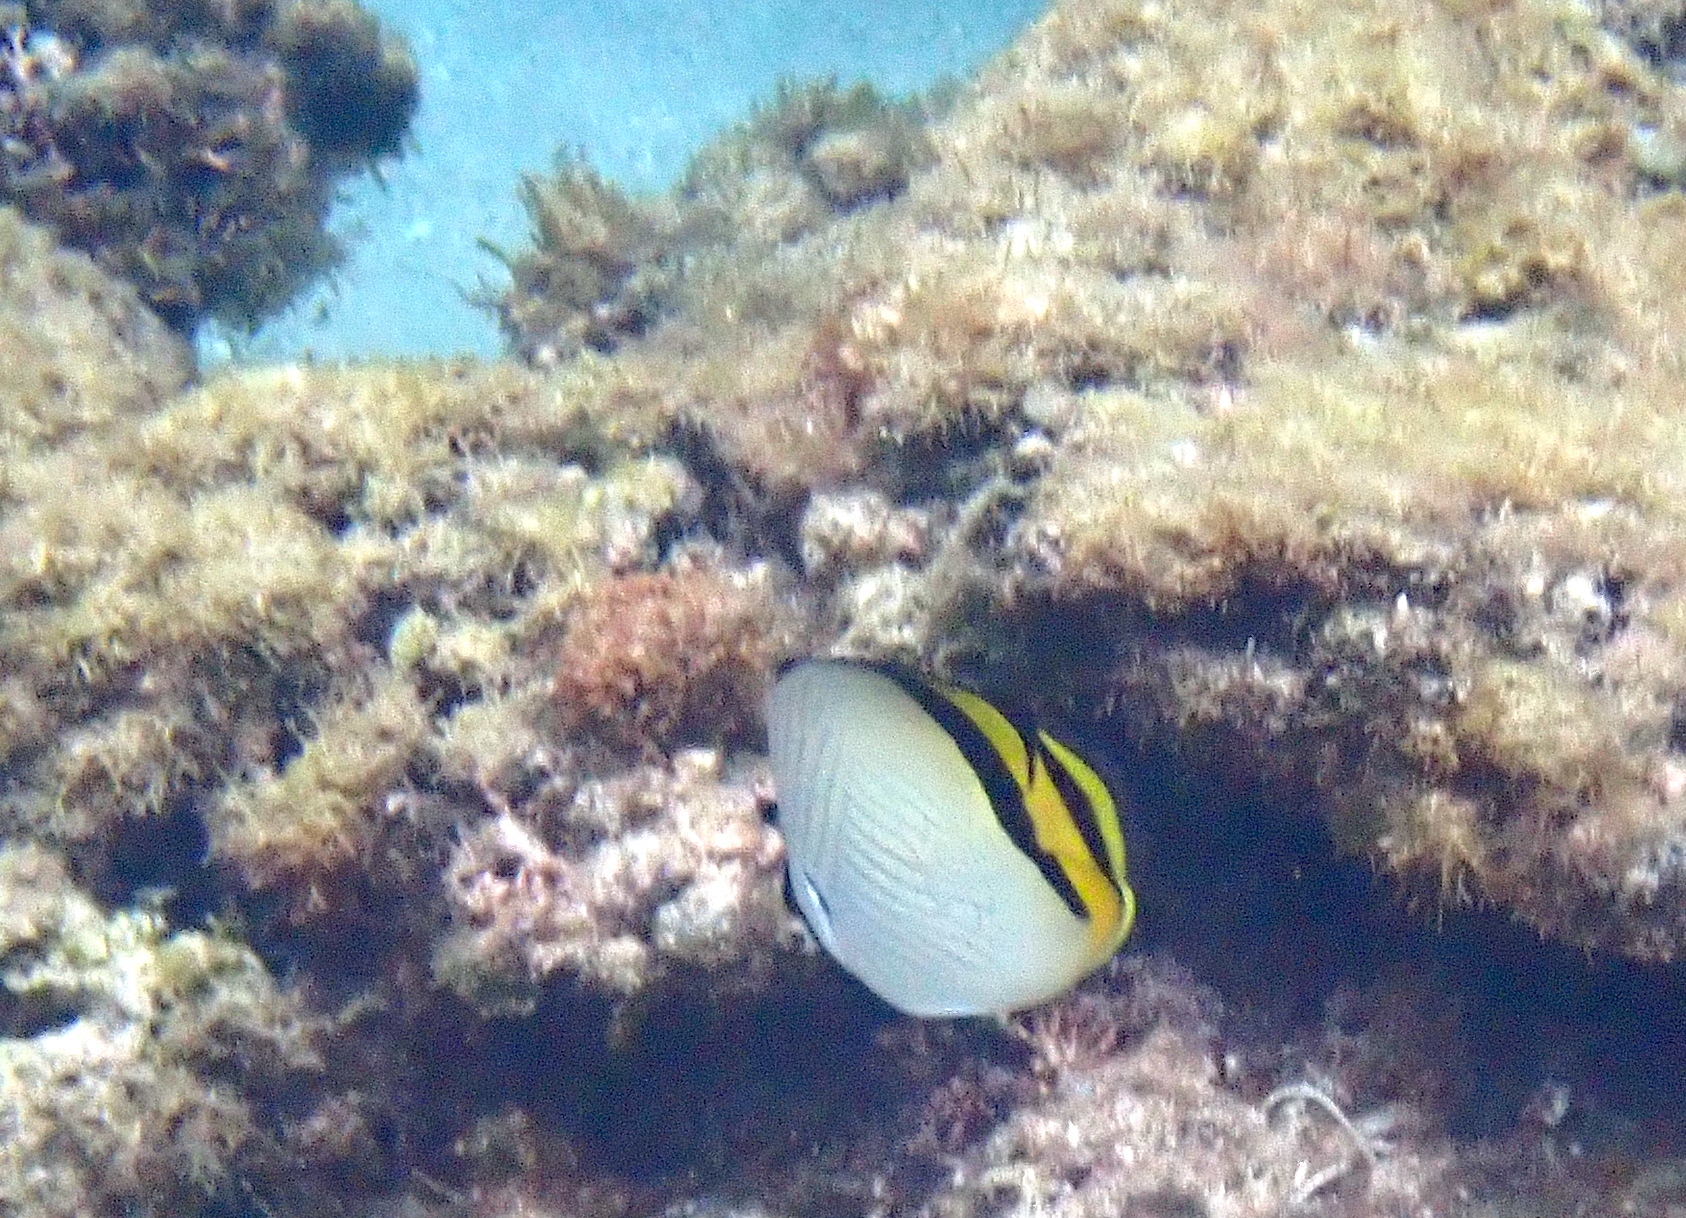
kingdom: Animalia
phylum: Chordata
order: Perciformes
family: Chaetodontidae
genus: Chaetodon
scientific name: Chaetodon vagabundus
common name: Vagabond butterflyfish
